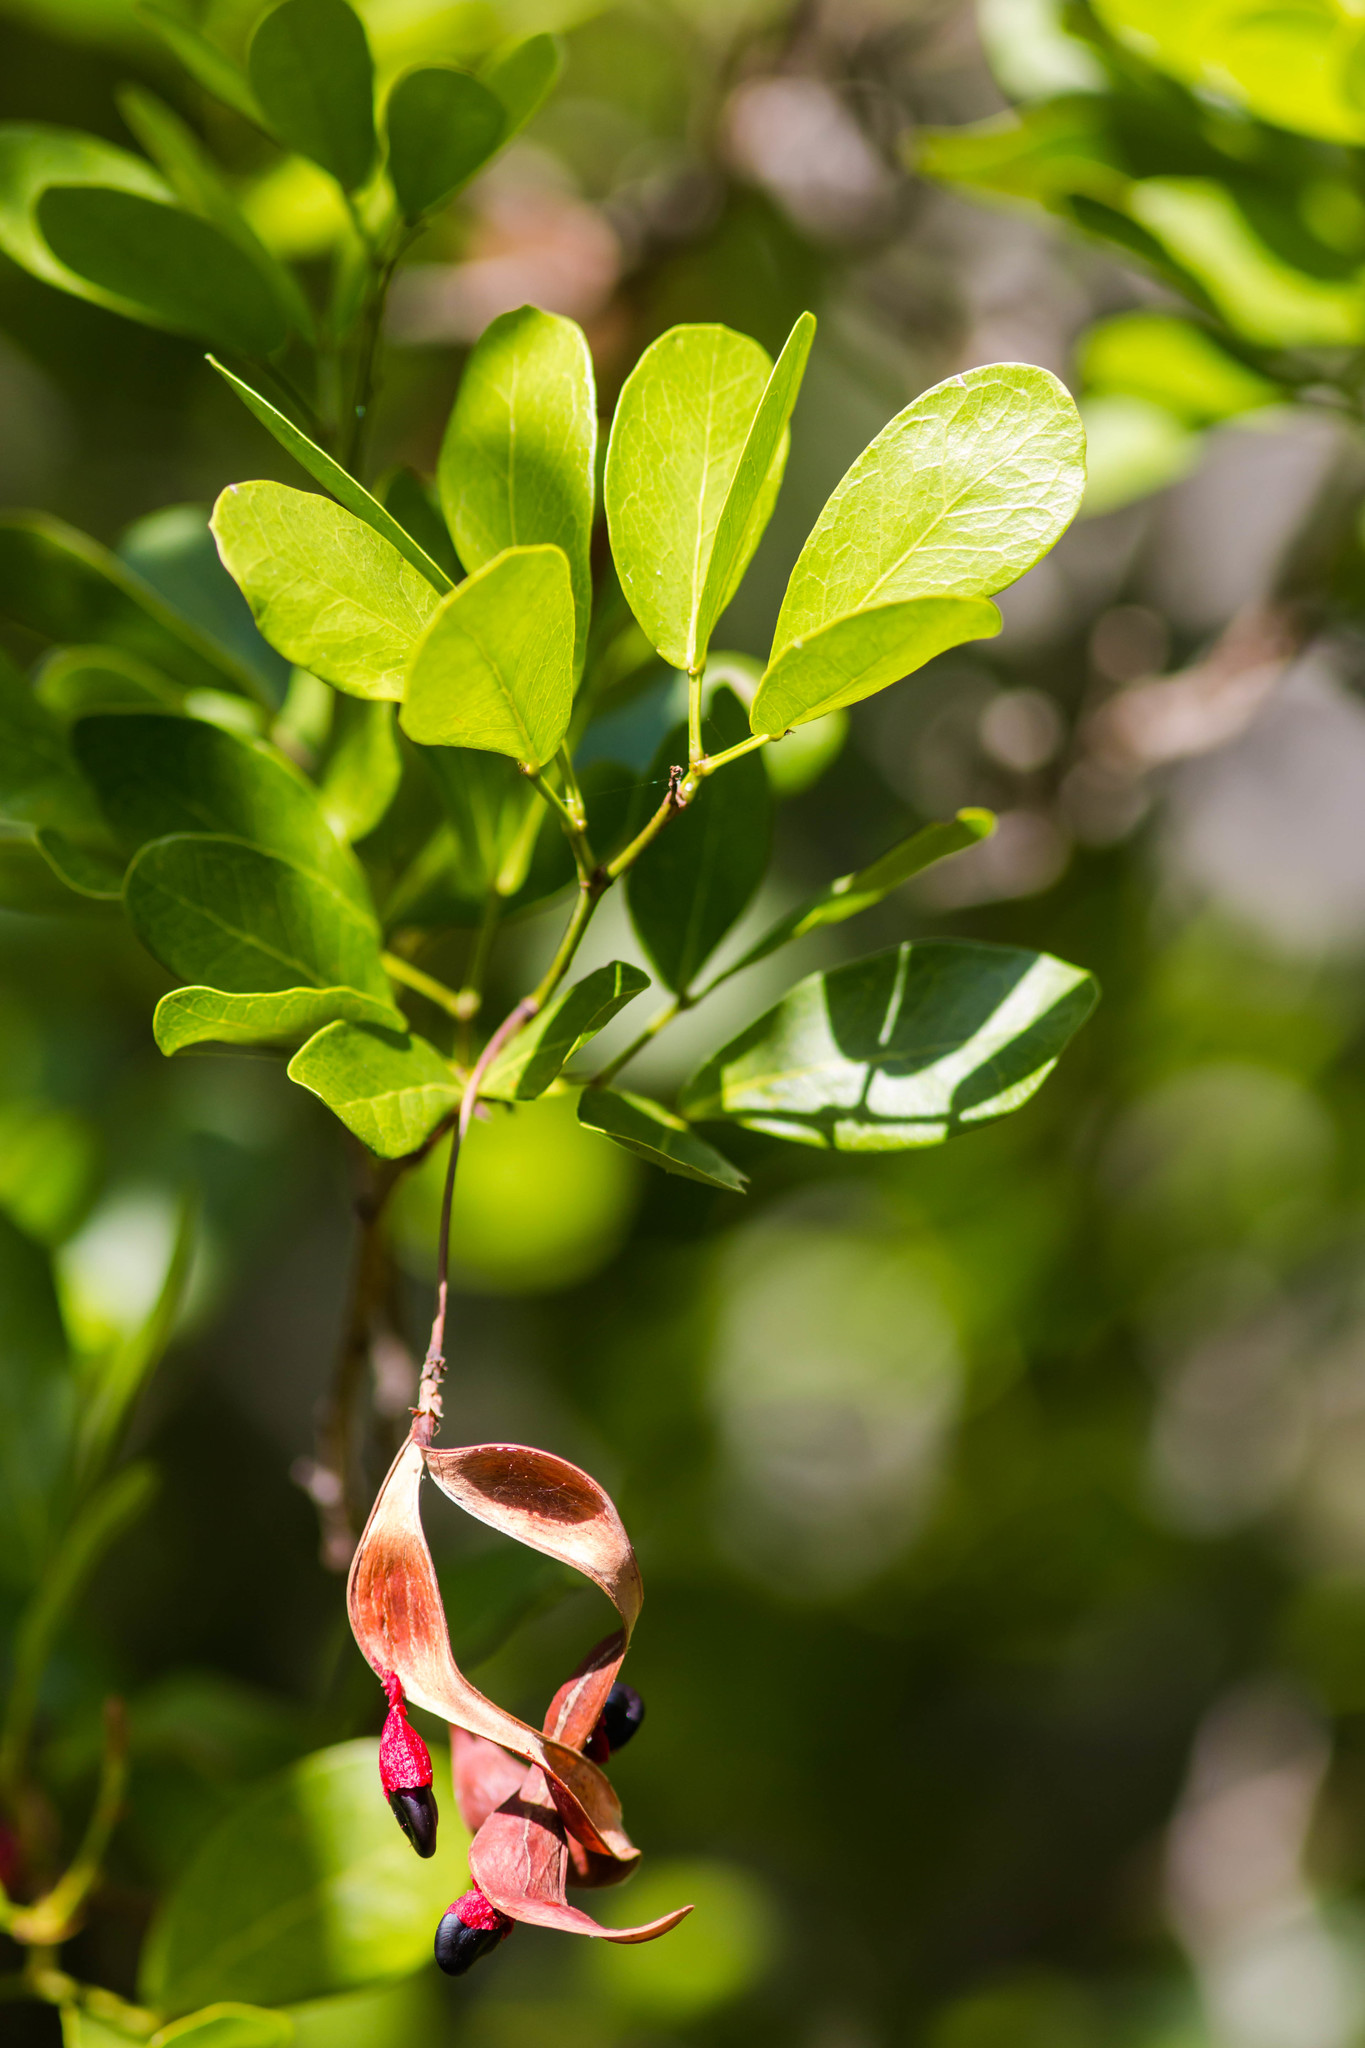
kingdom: Plantae
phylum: Tracheophyta
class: Magnoliopsida
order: Fabales
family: Fabaceae
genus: Pithecellobium
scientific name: Pithecellobium keyense
